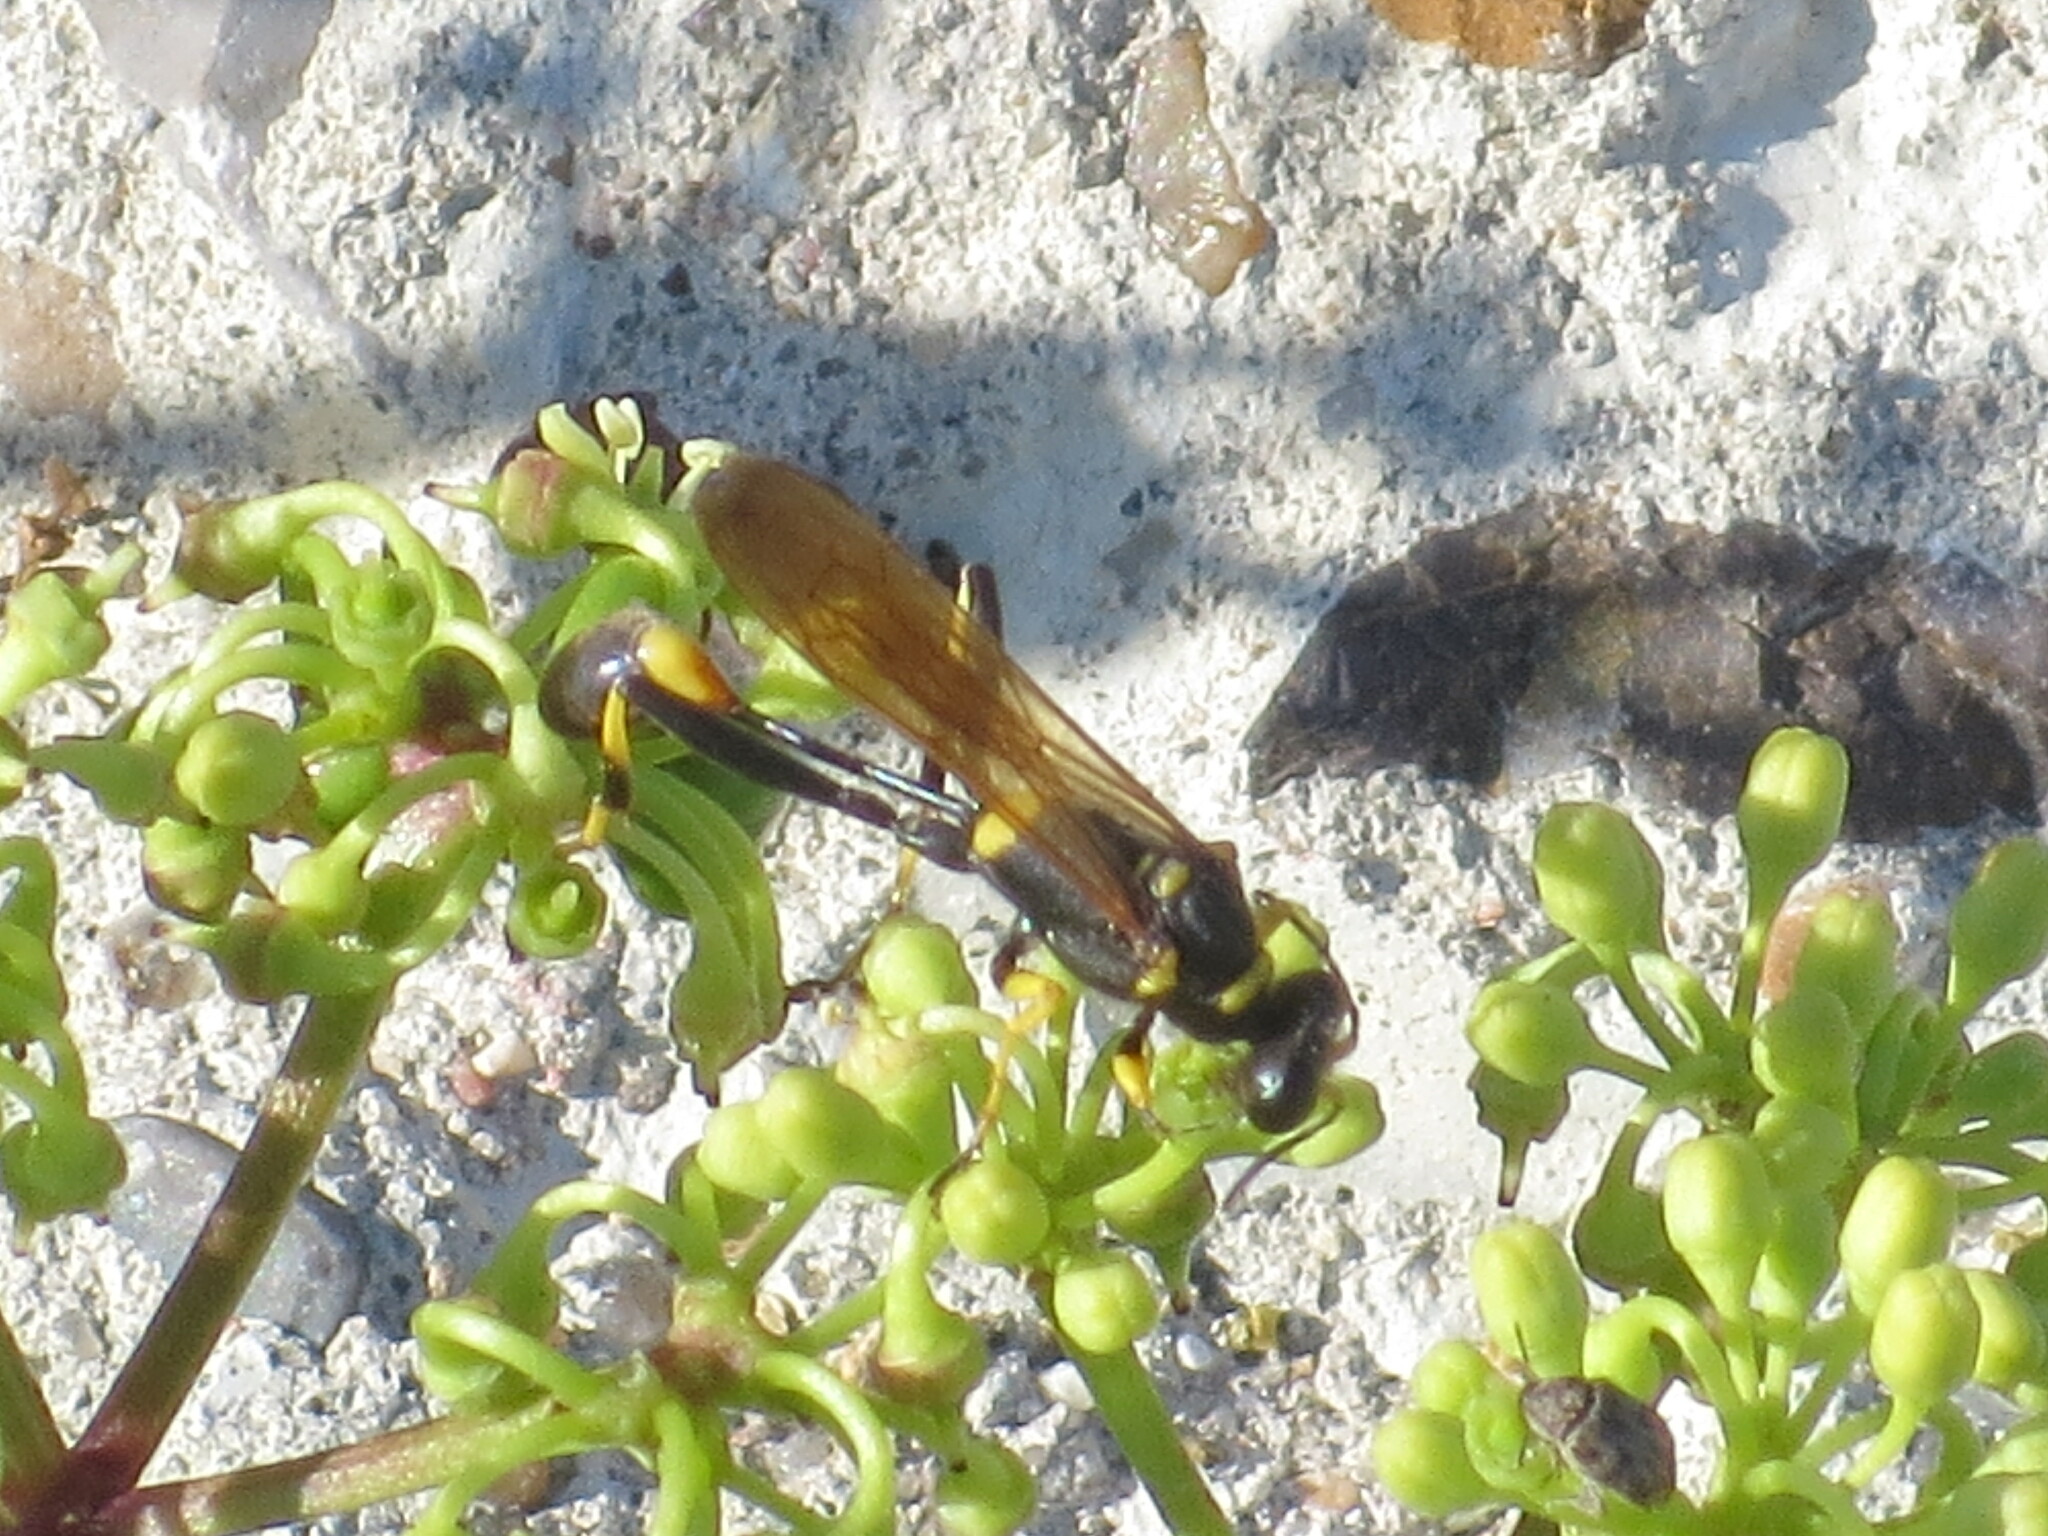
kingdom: Animalia
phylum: Arthropoda
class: Insecta
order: Hymenoptera
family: Sphecidae
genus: Sceliphron
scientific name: Sceliphron caementarium
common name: Mud dauber
